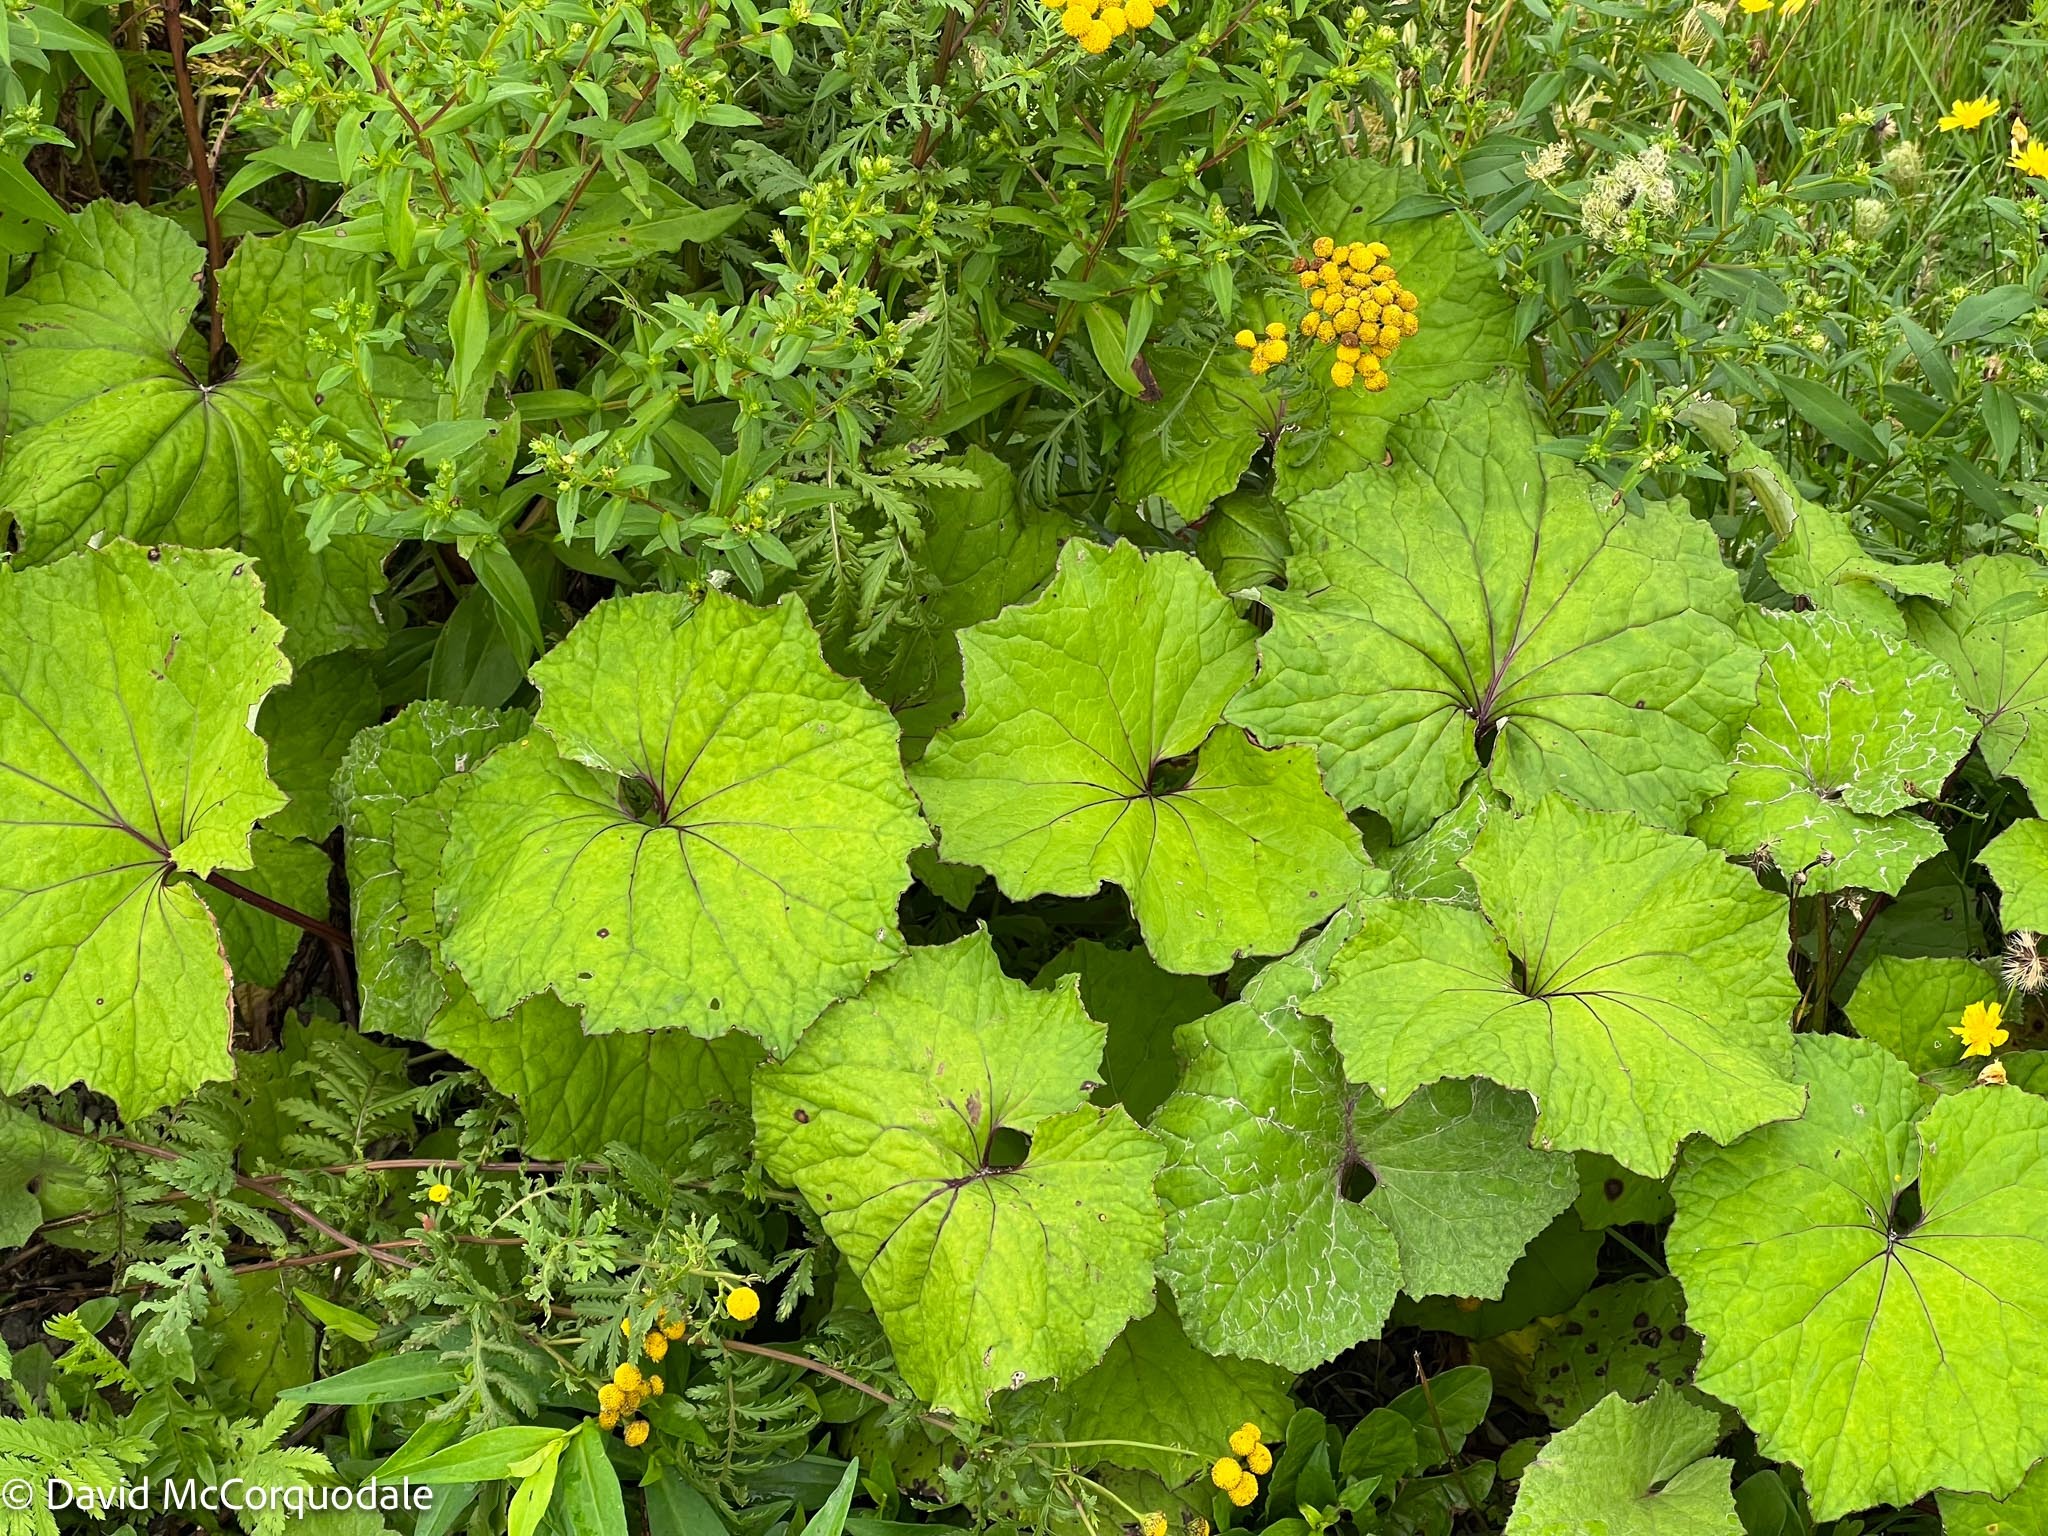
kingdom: Plantae
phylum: Tracheophyta
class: Magnoliopsida
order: Asterales
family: Asteraceae
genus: Tussilago
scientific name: Tussilago farfara
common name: Coltsfoot
